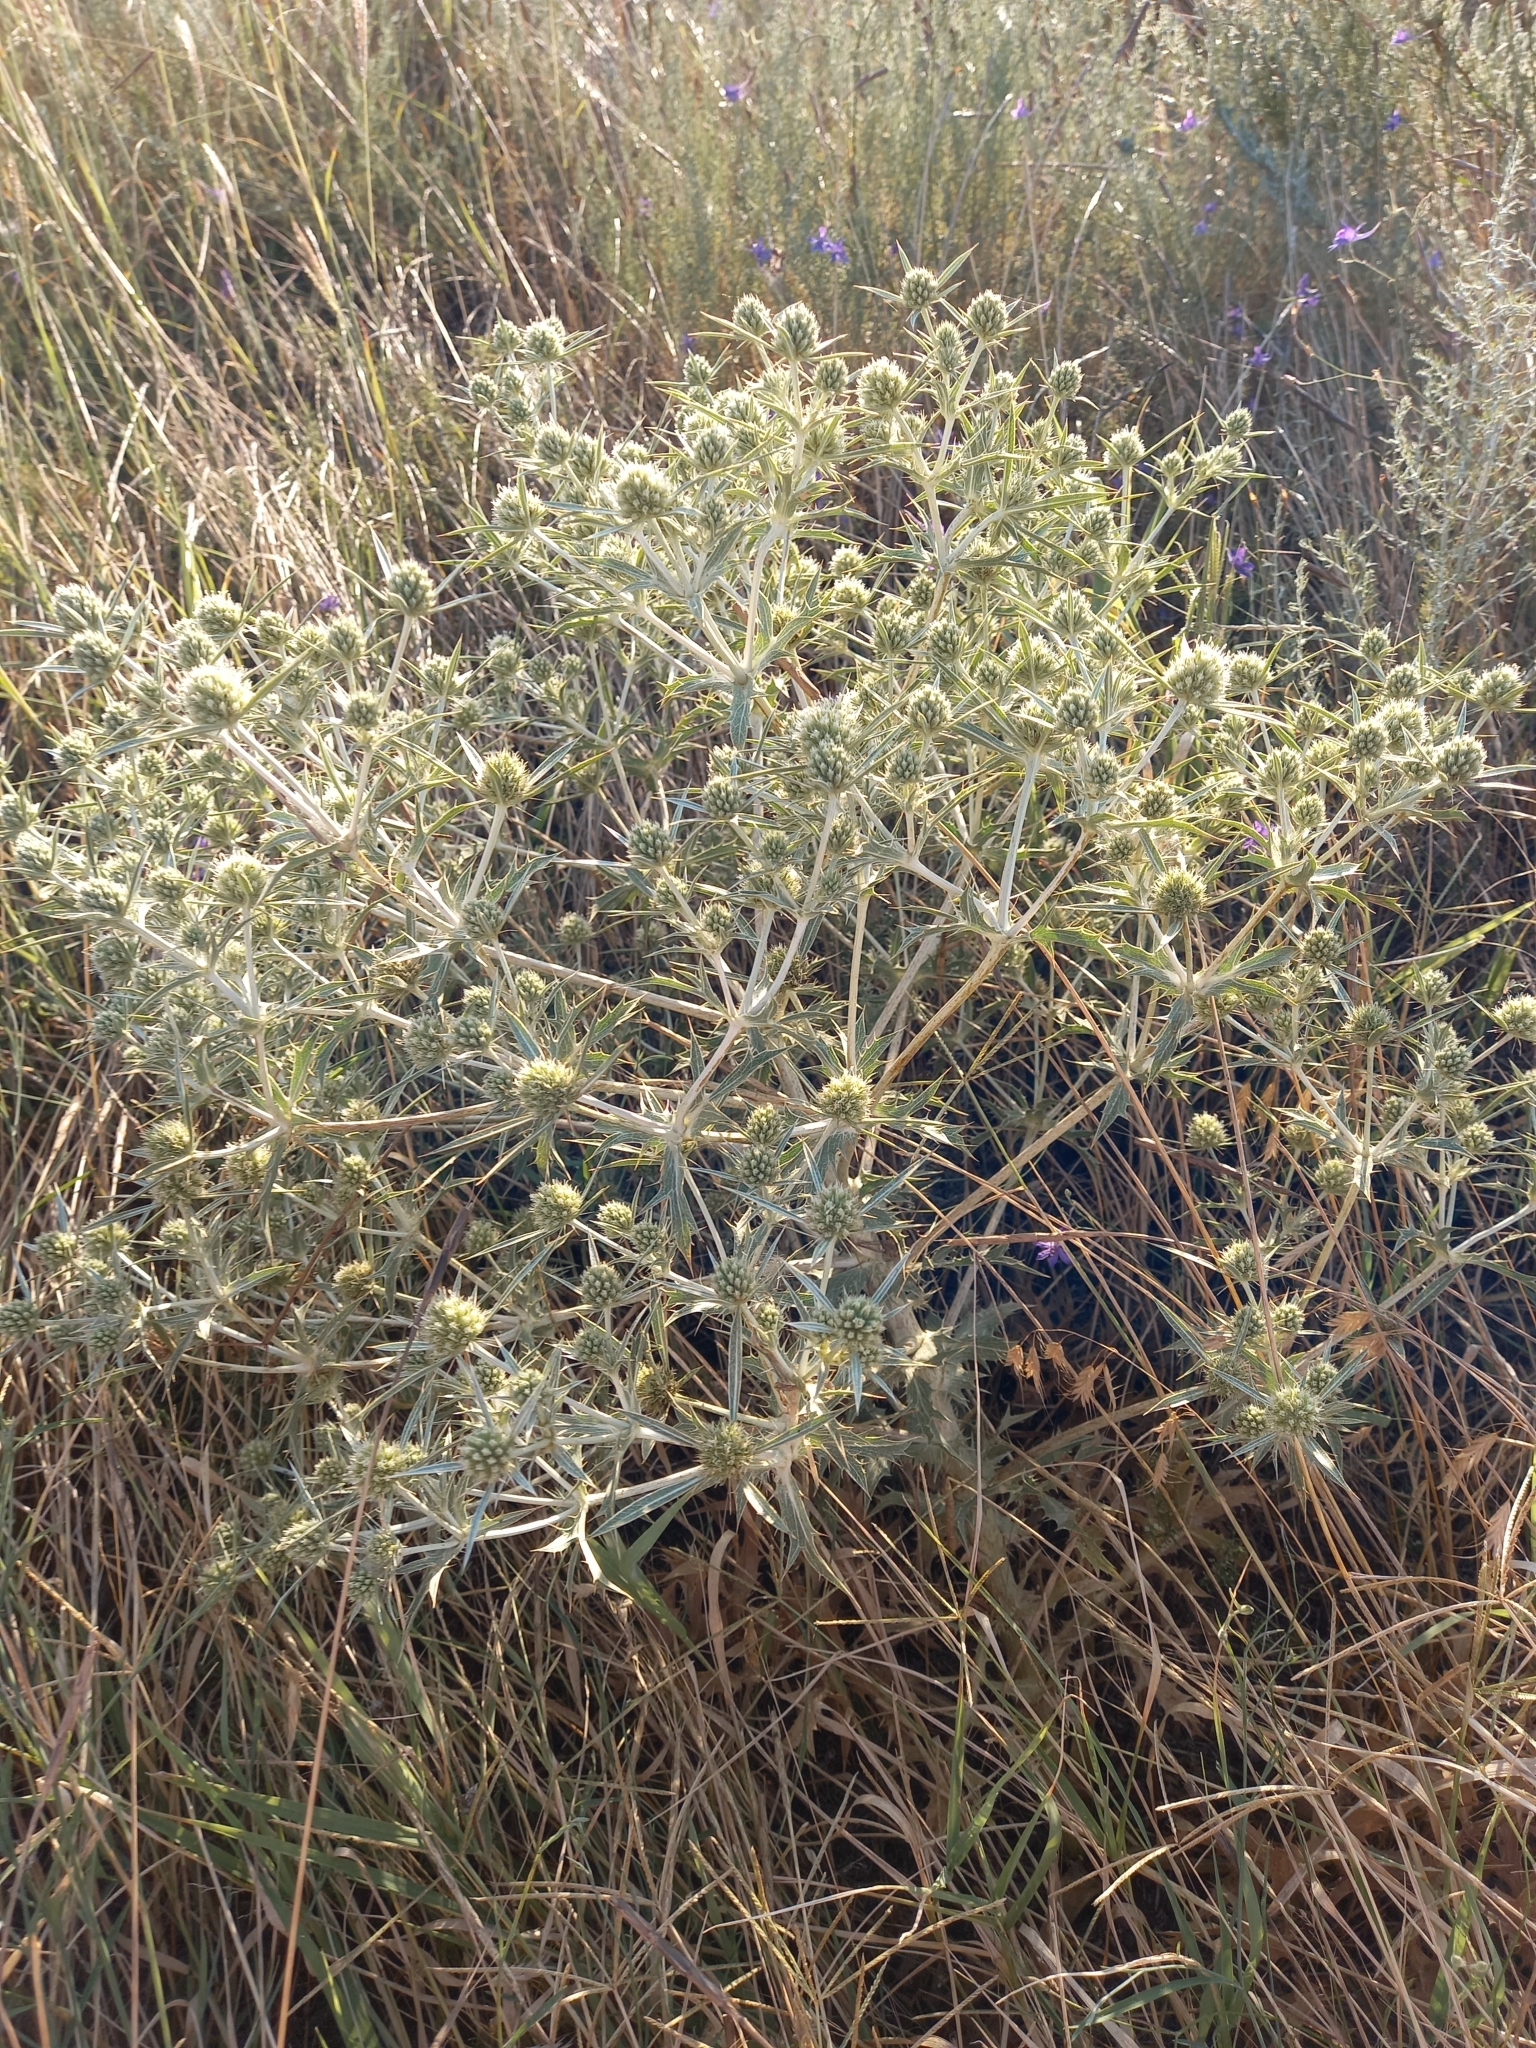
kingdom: Plantae
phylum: Tracheophyta
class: Magnoliopsida
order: Apiales
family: Apiaceae
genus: Eryngium
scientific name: Eryngium campestre
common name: Field eryngo
